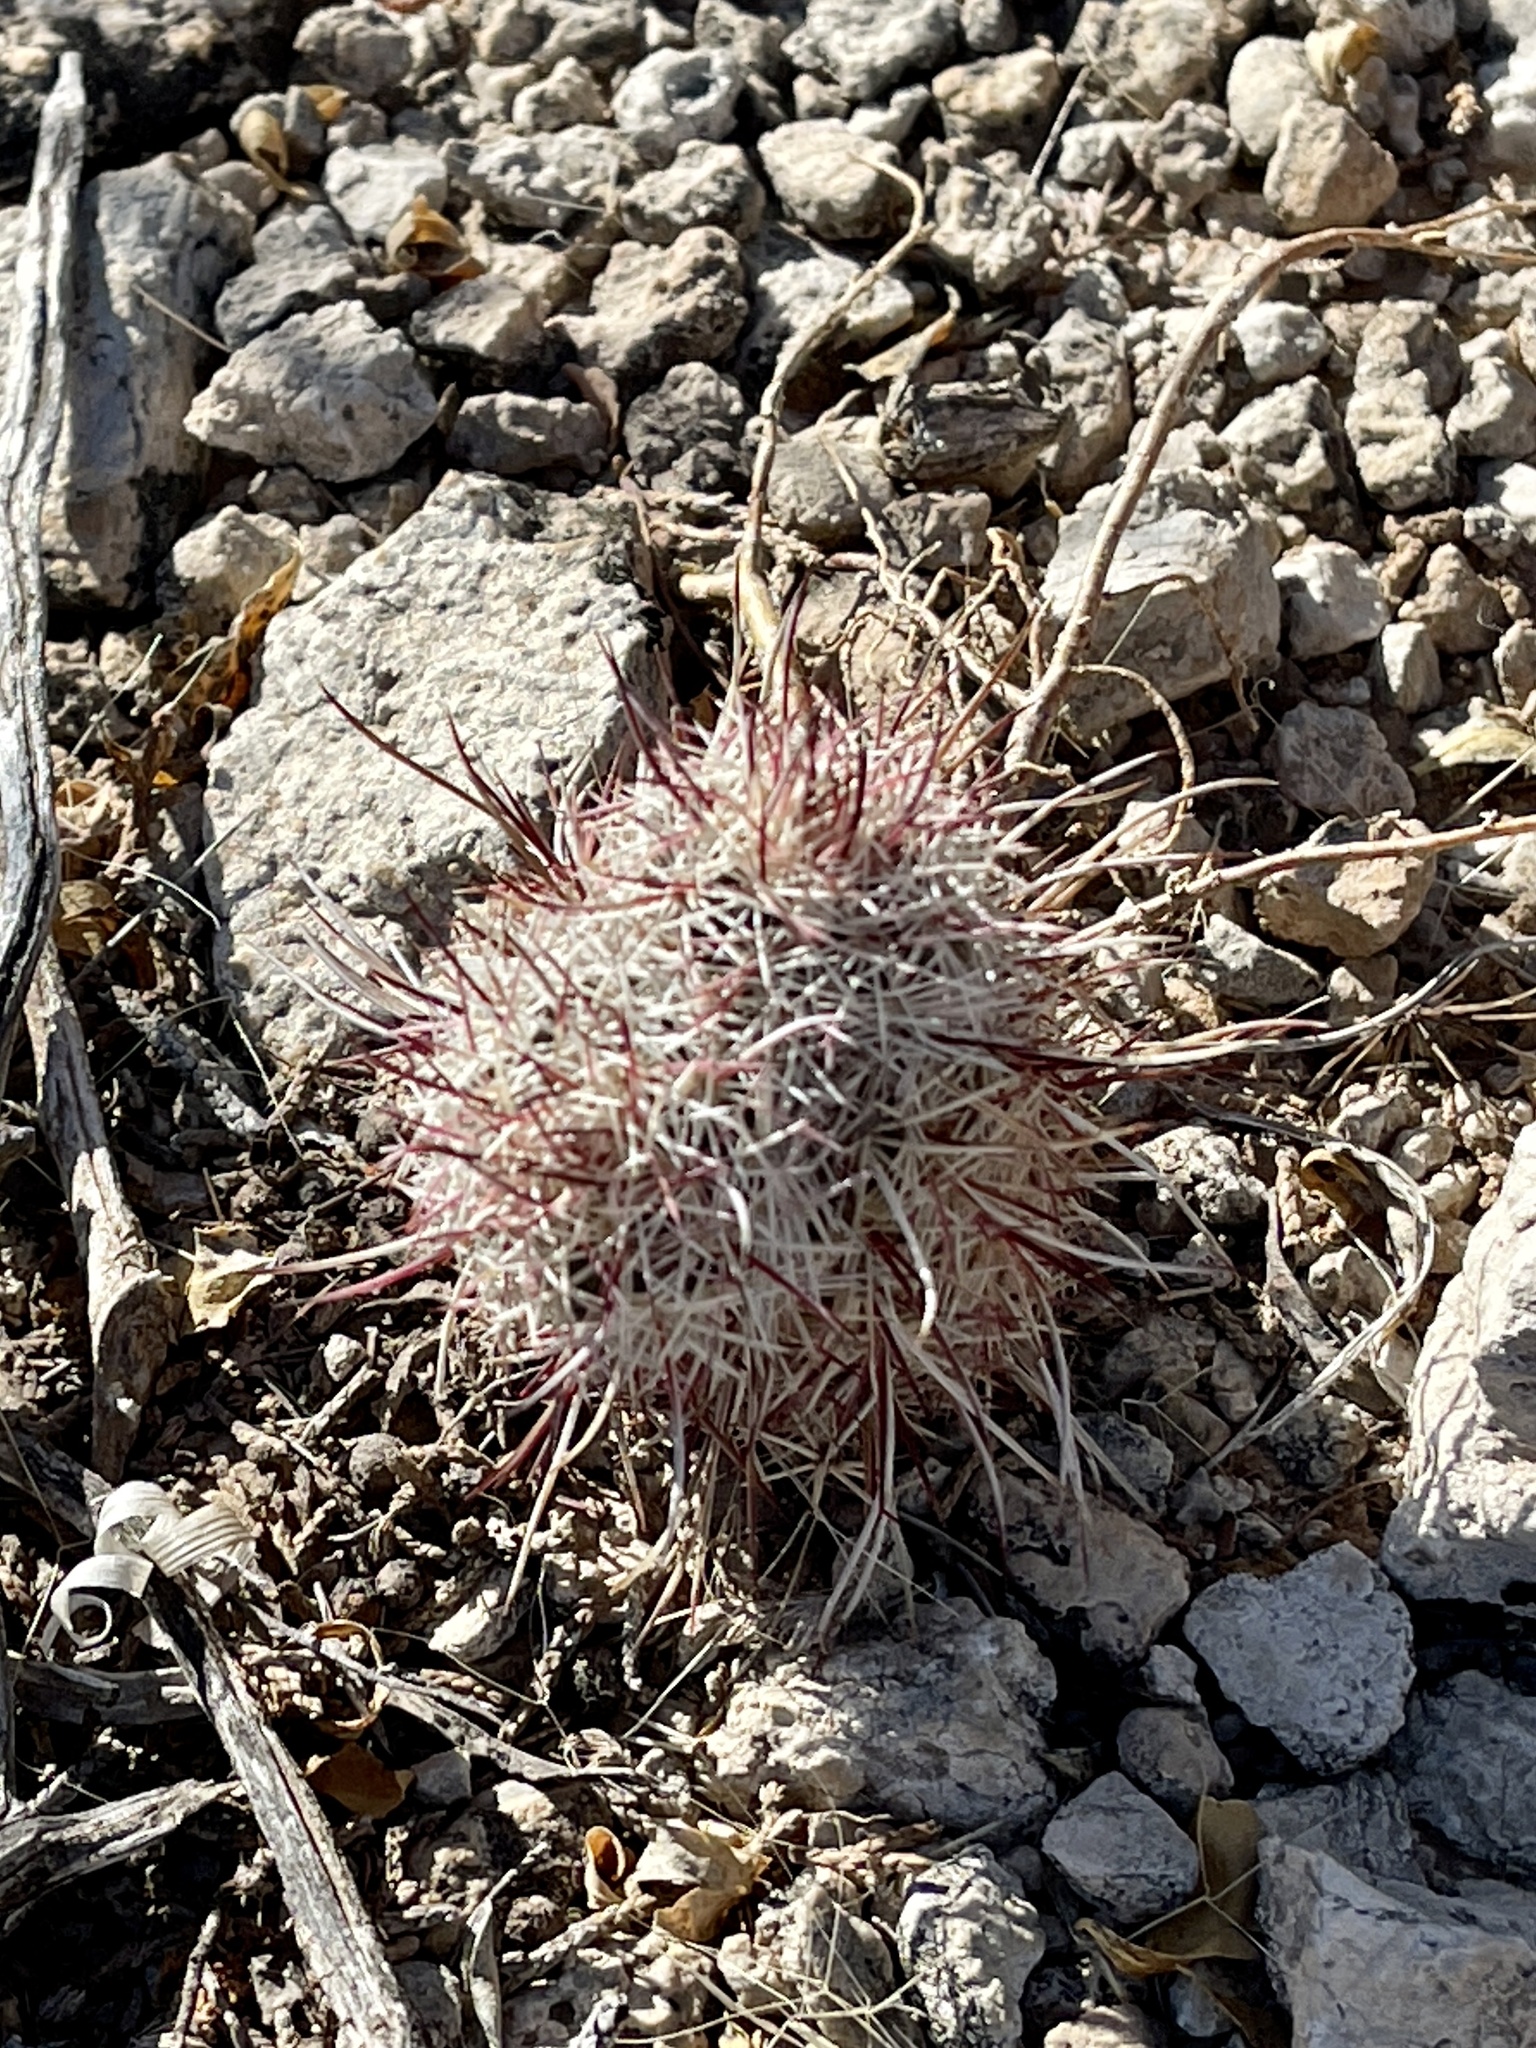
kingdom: Plantae
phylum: Tracheophyta
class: Magnoliopsida
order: Caryophyllales
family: Cactaceae
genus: Echinocereus
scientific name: Echinocereus viridiflorus
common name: Nylon hedgehog cactus
